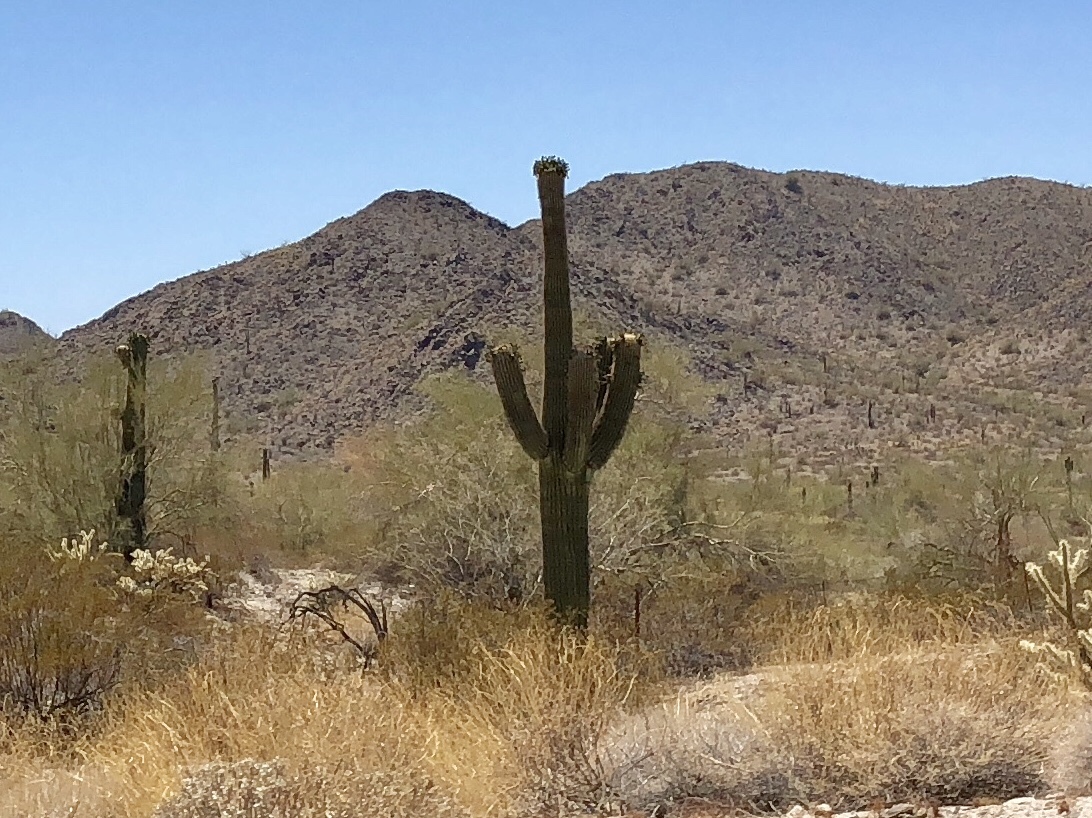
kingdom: Plantae
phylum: Tracheophyta
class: Magnoliopsida
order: Caryophyllales
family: Cactaceae
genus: Carnegiea
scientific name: Carnegiea gigantea
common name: Saguaro
